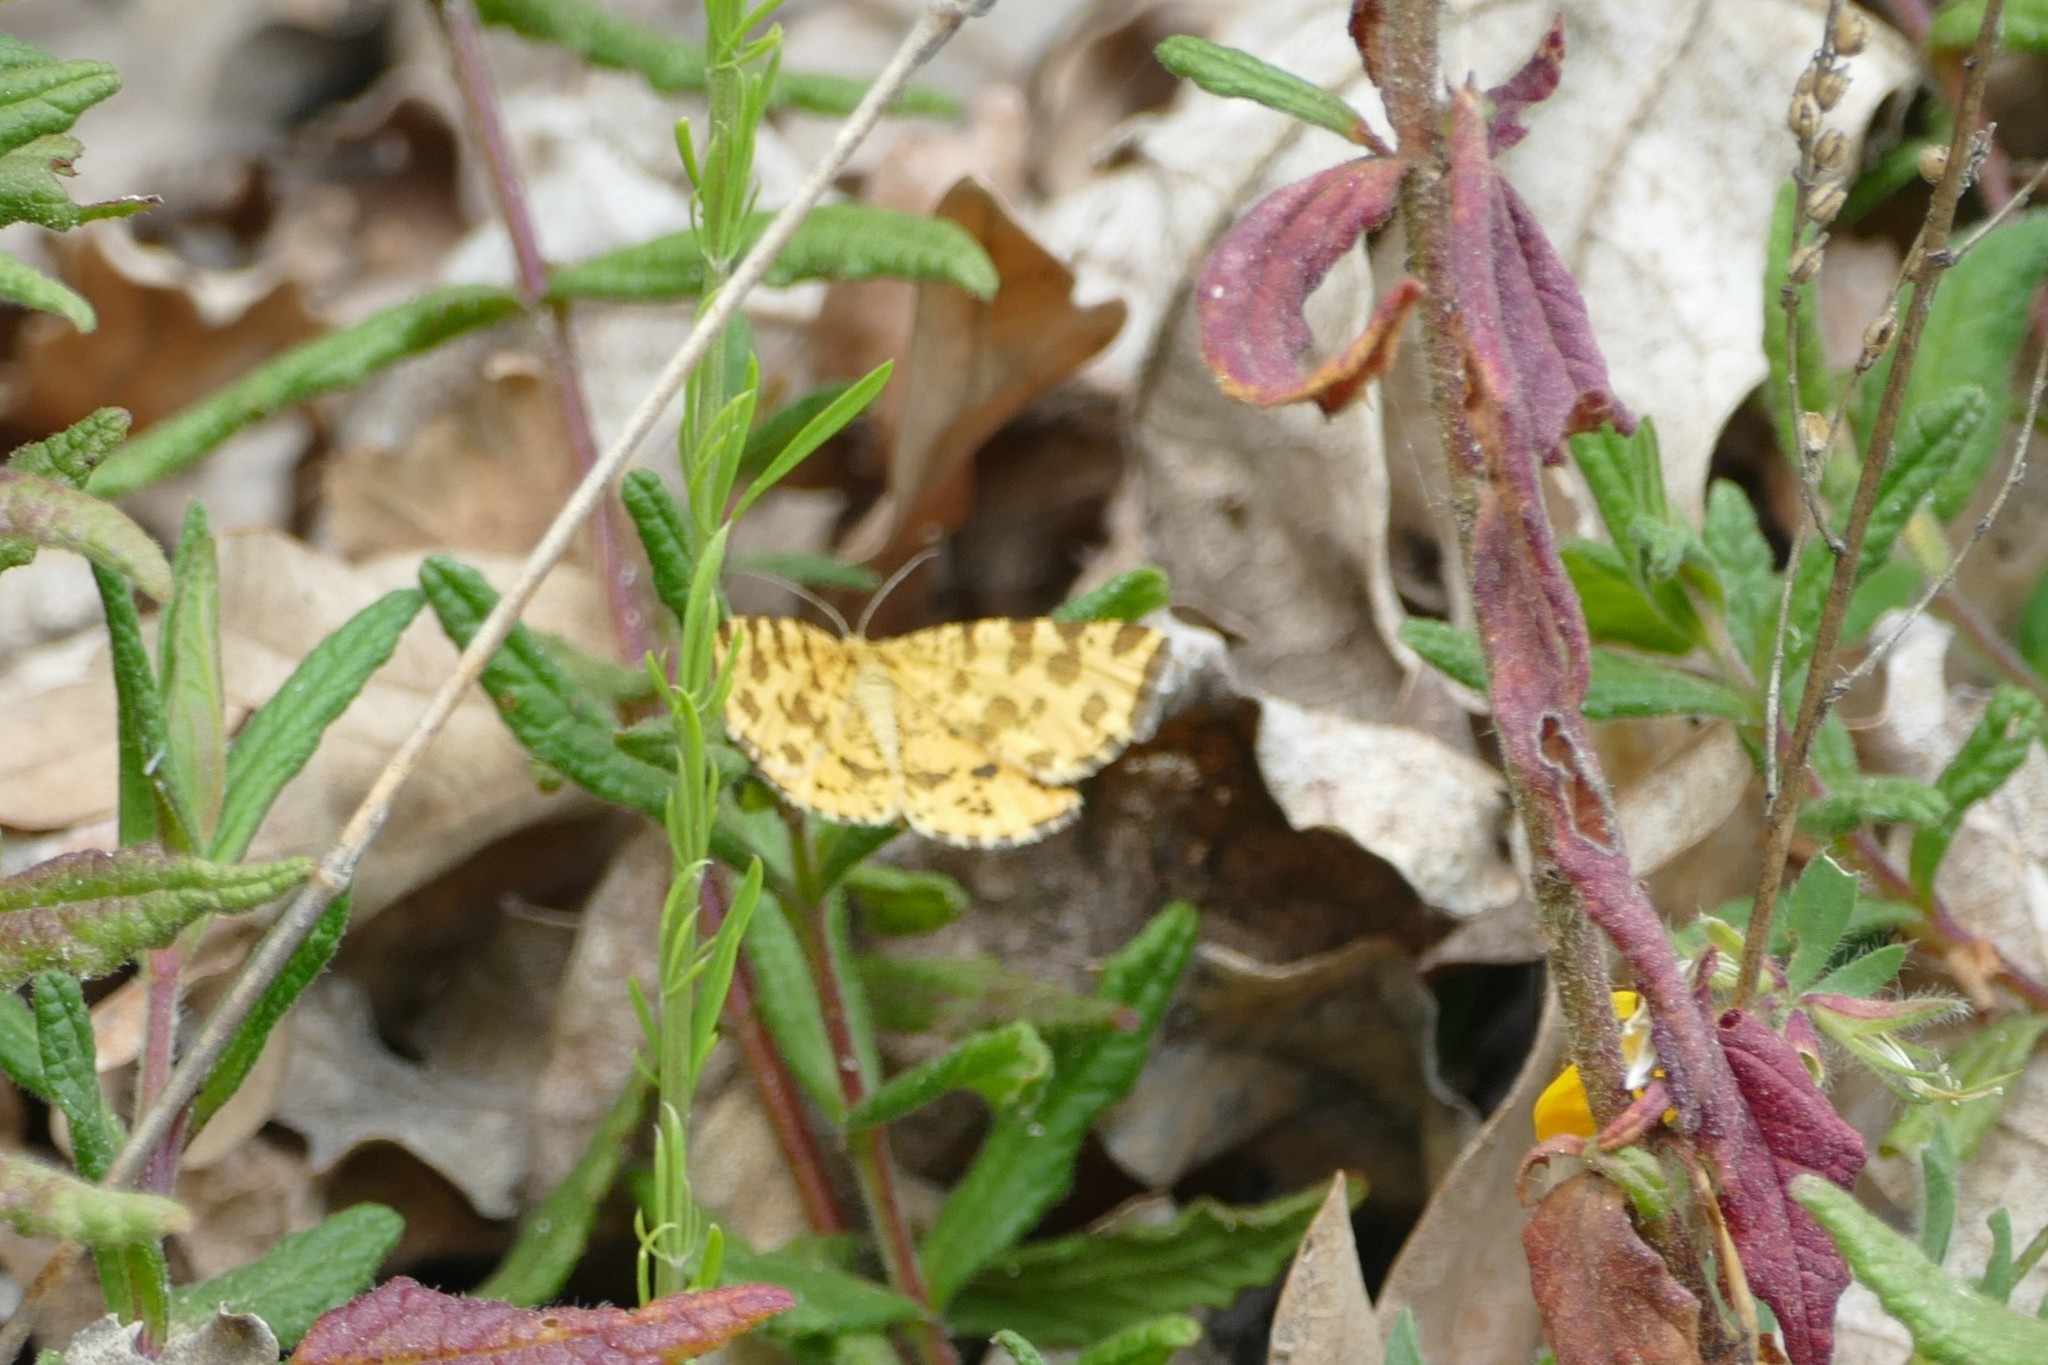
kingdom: Animalia
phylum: Arthropoda
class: Insecta
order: Lepidoptera
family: Geometridae
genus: Pseudopanthera
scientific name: Pseudopanthera macularia
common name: Speckled yellow
